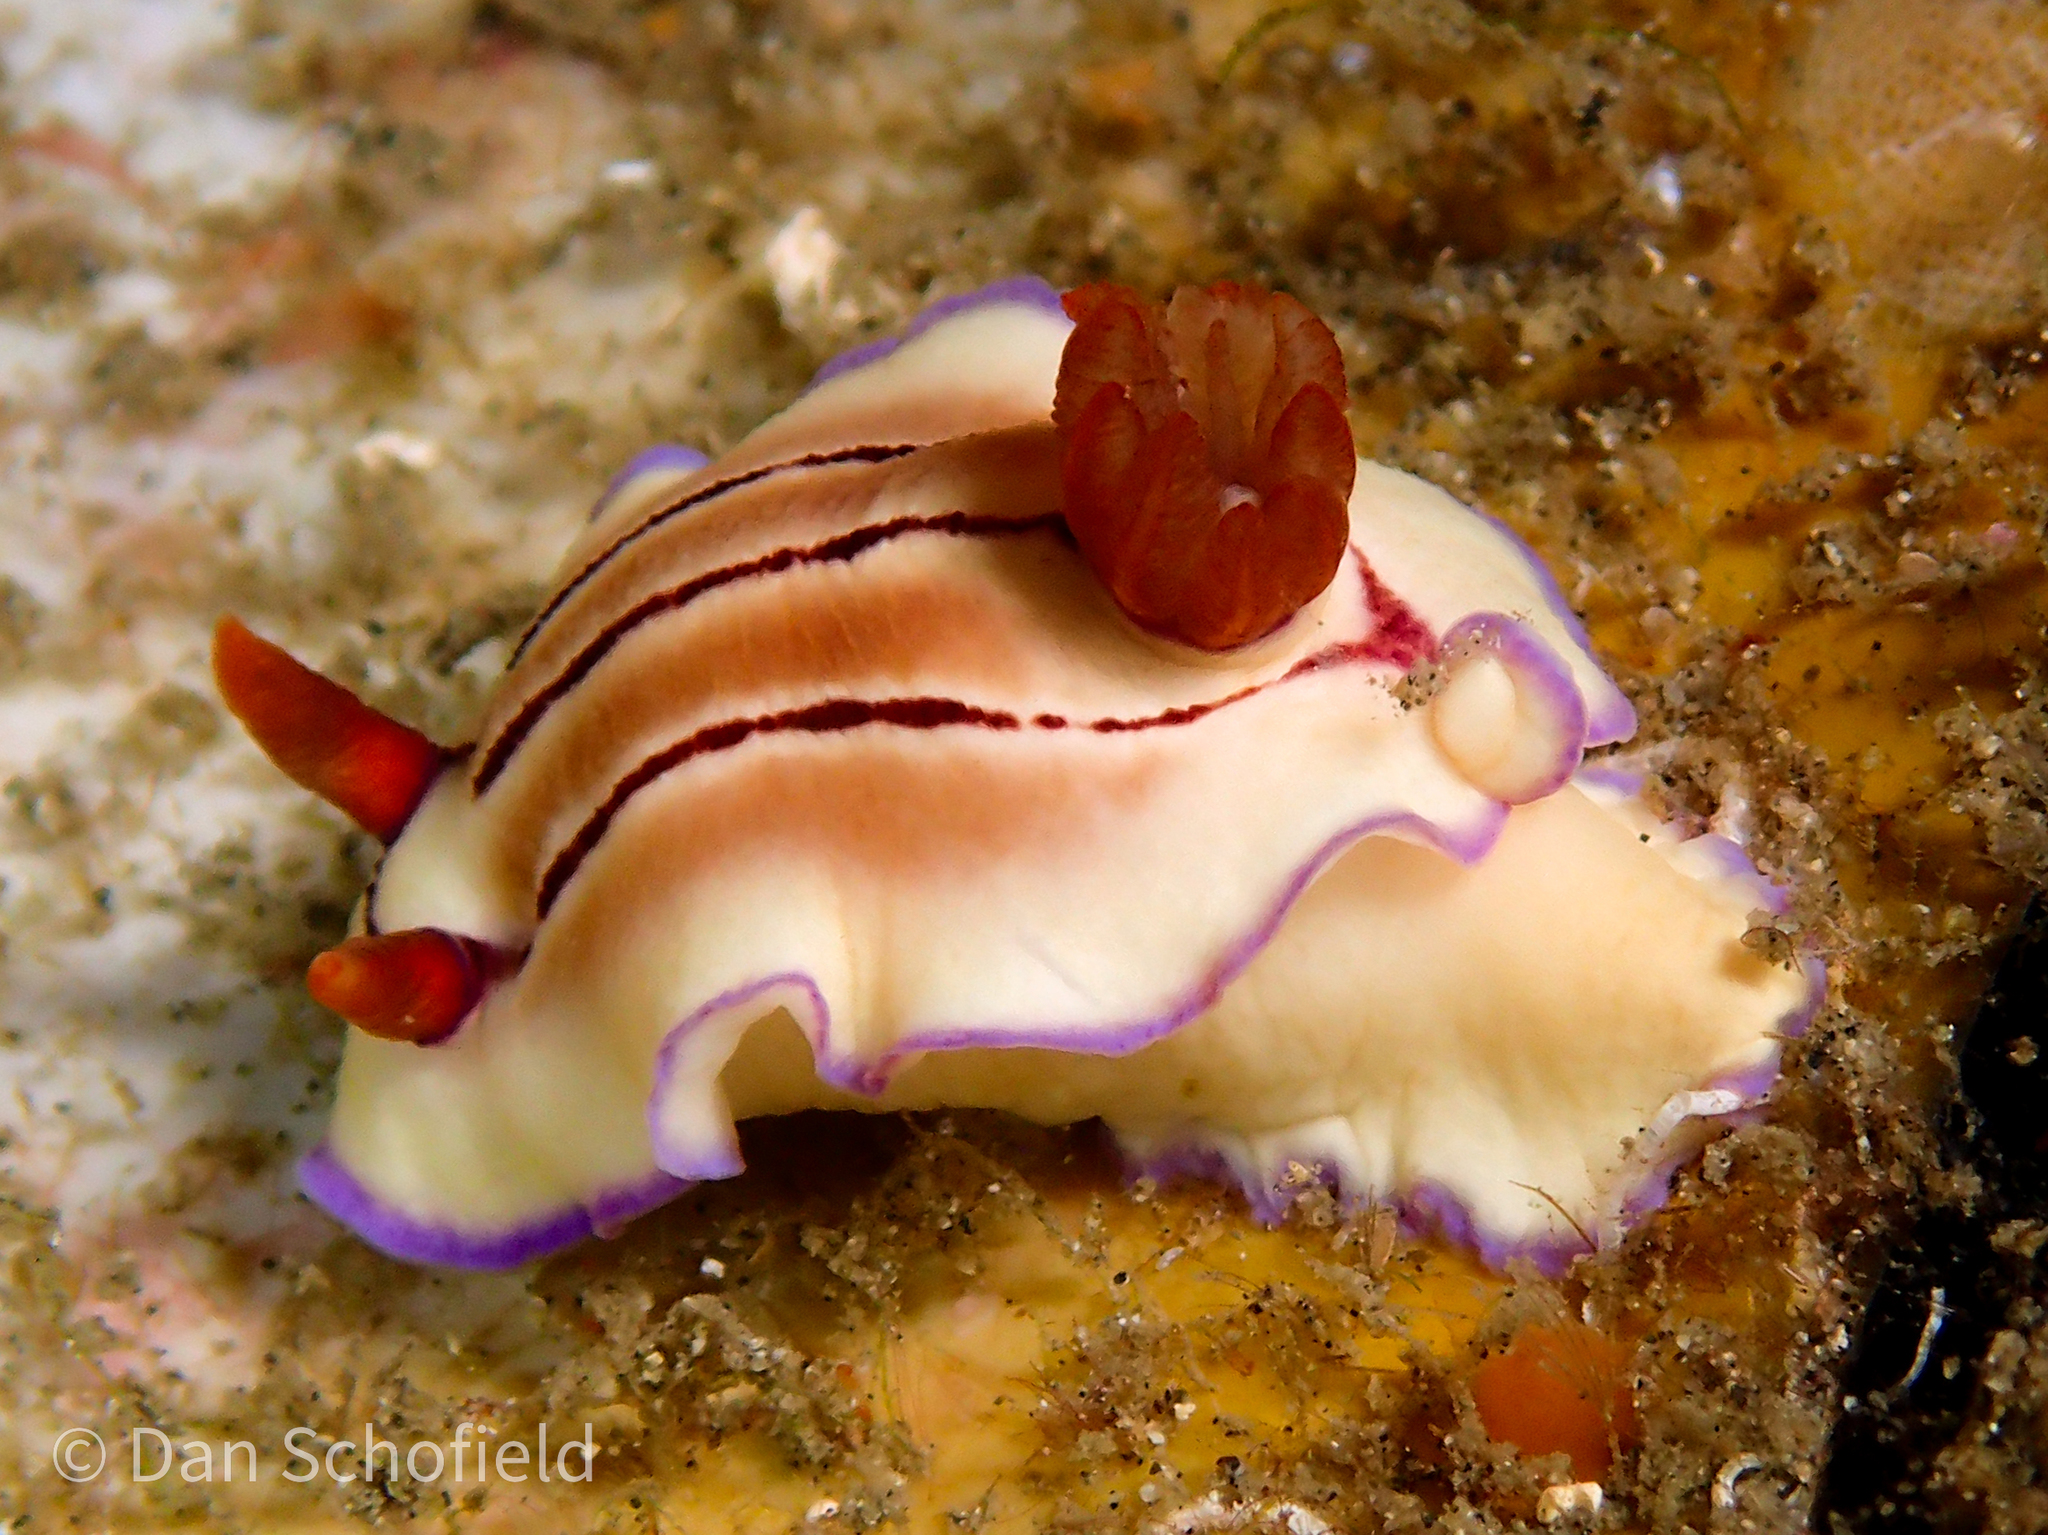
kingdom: Animalia
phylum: Mollusca
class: Gastropoda
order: Nudibranchia
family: Chromodorididae
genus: Hypselodoris
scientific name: Hypselodoris emma
